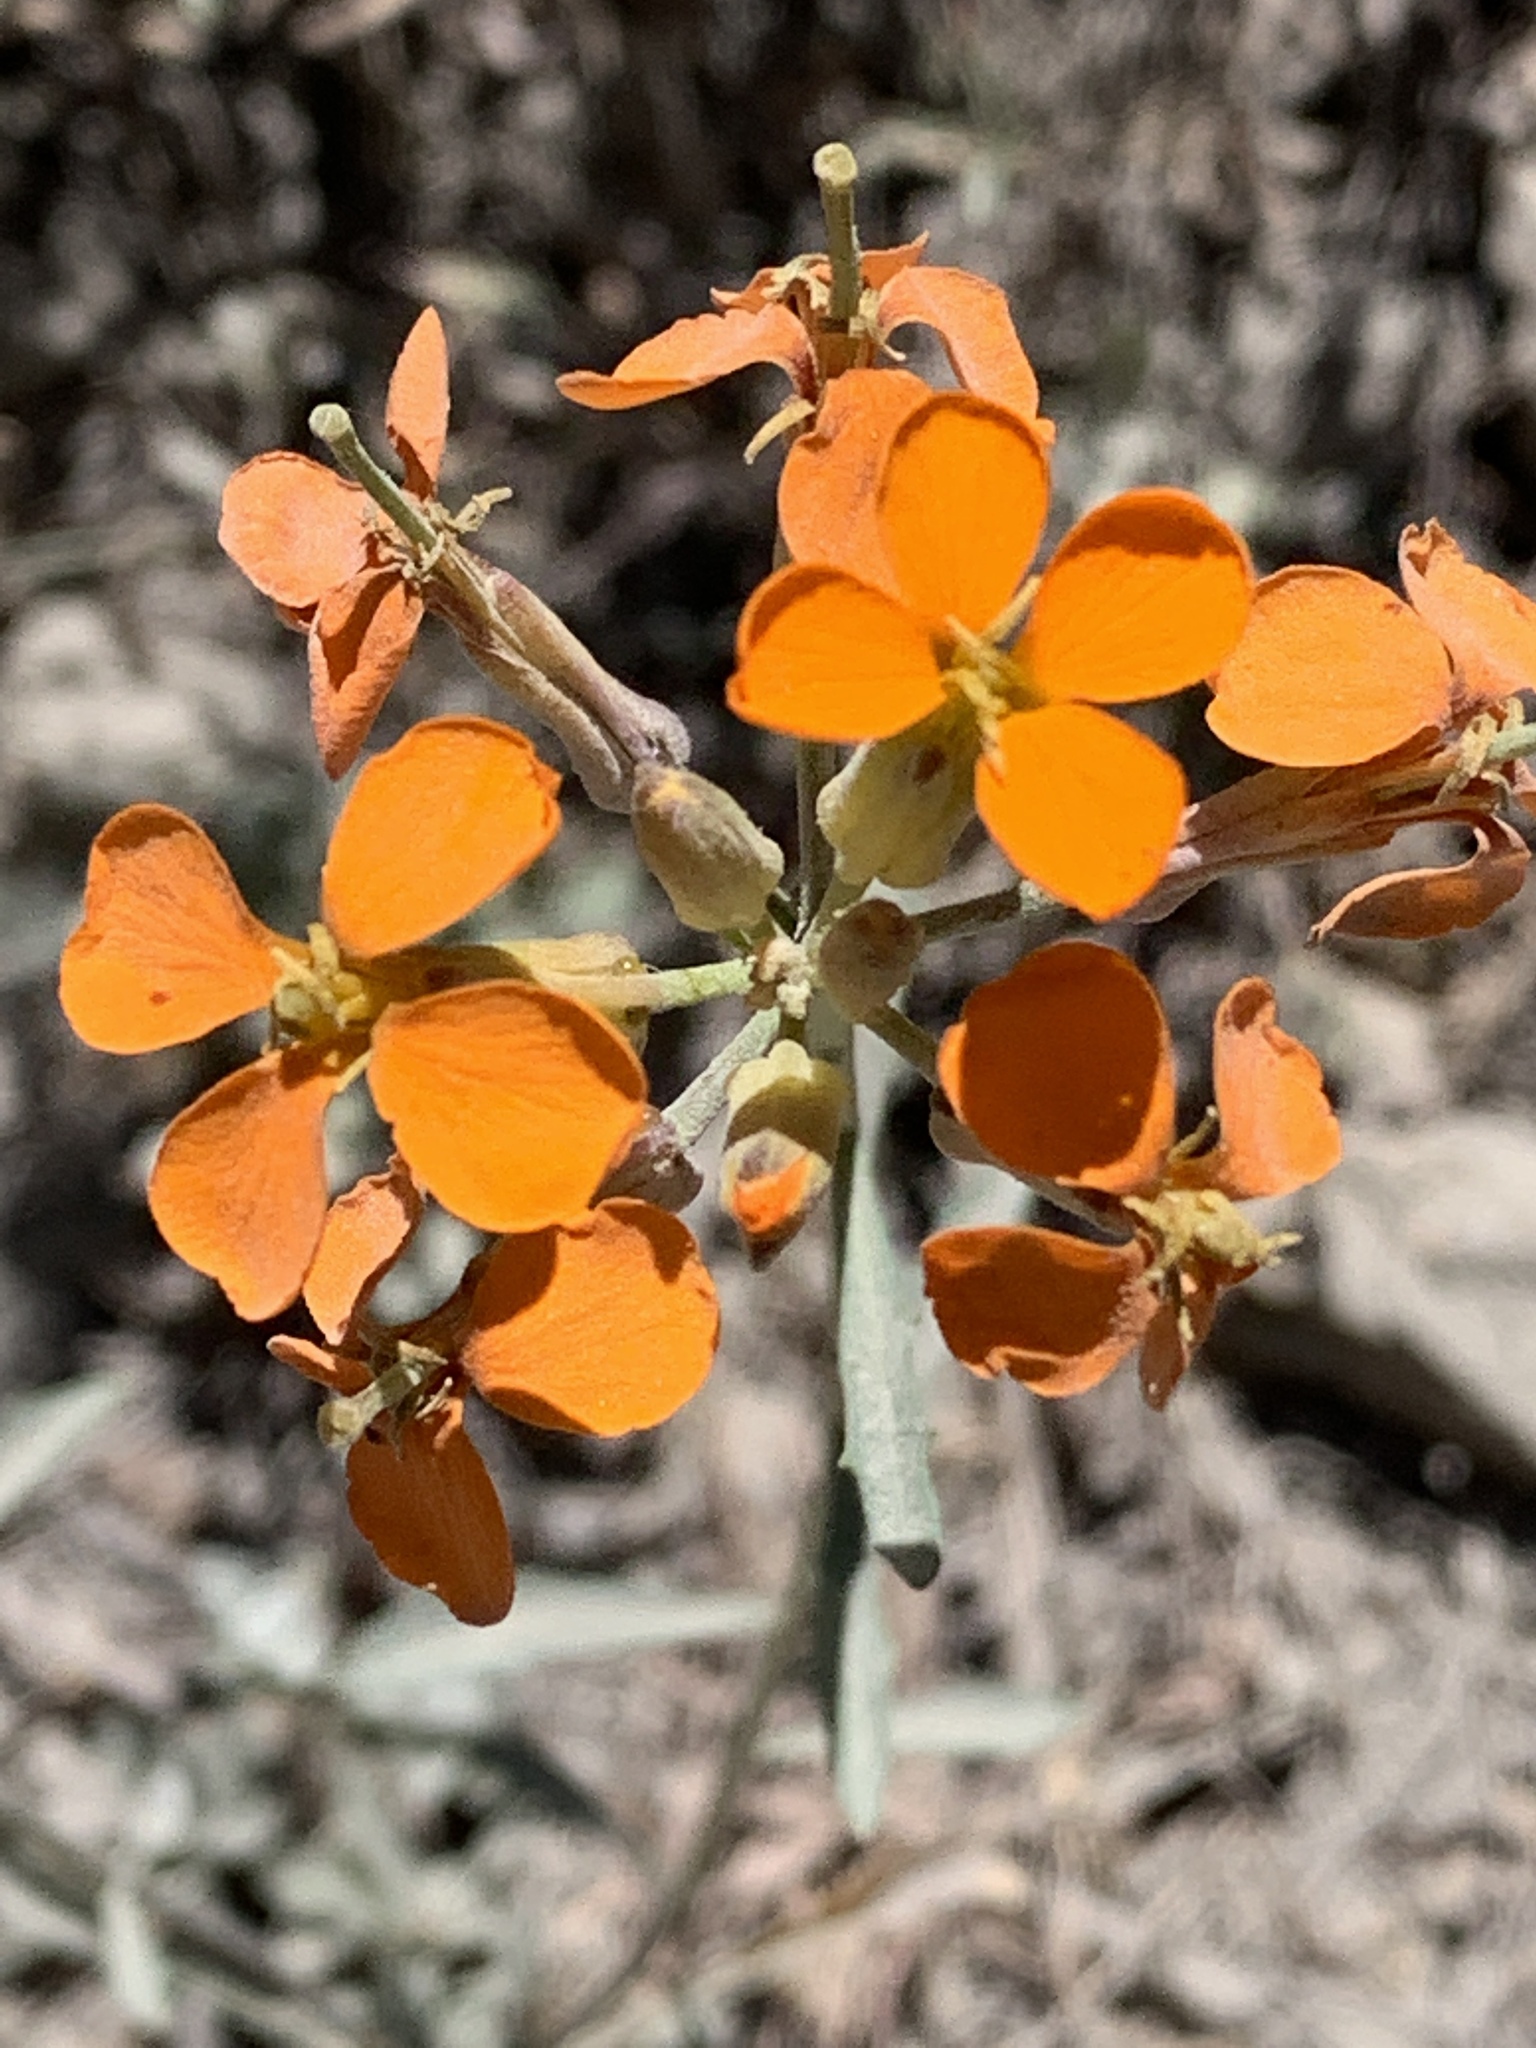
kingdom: Plantae
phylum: Tracheophyta
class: Magnoliopsida
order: Brassicales
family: Brassicaceae
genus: Erysimum
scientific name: Erysimum capitatum
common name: Western wallflower
